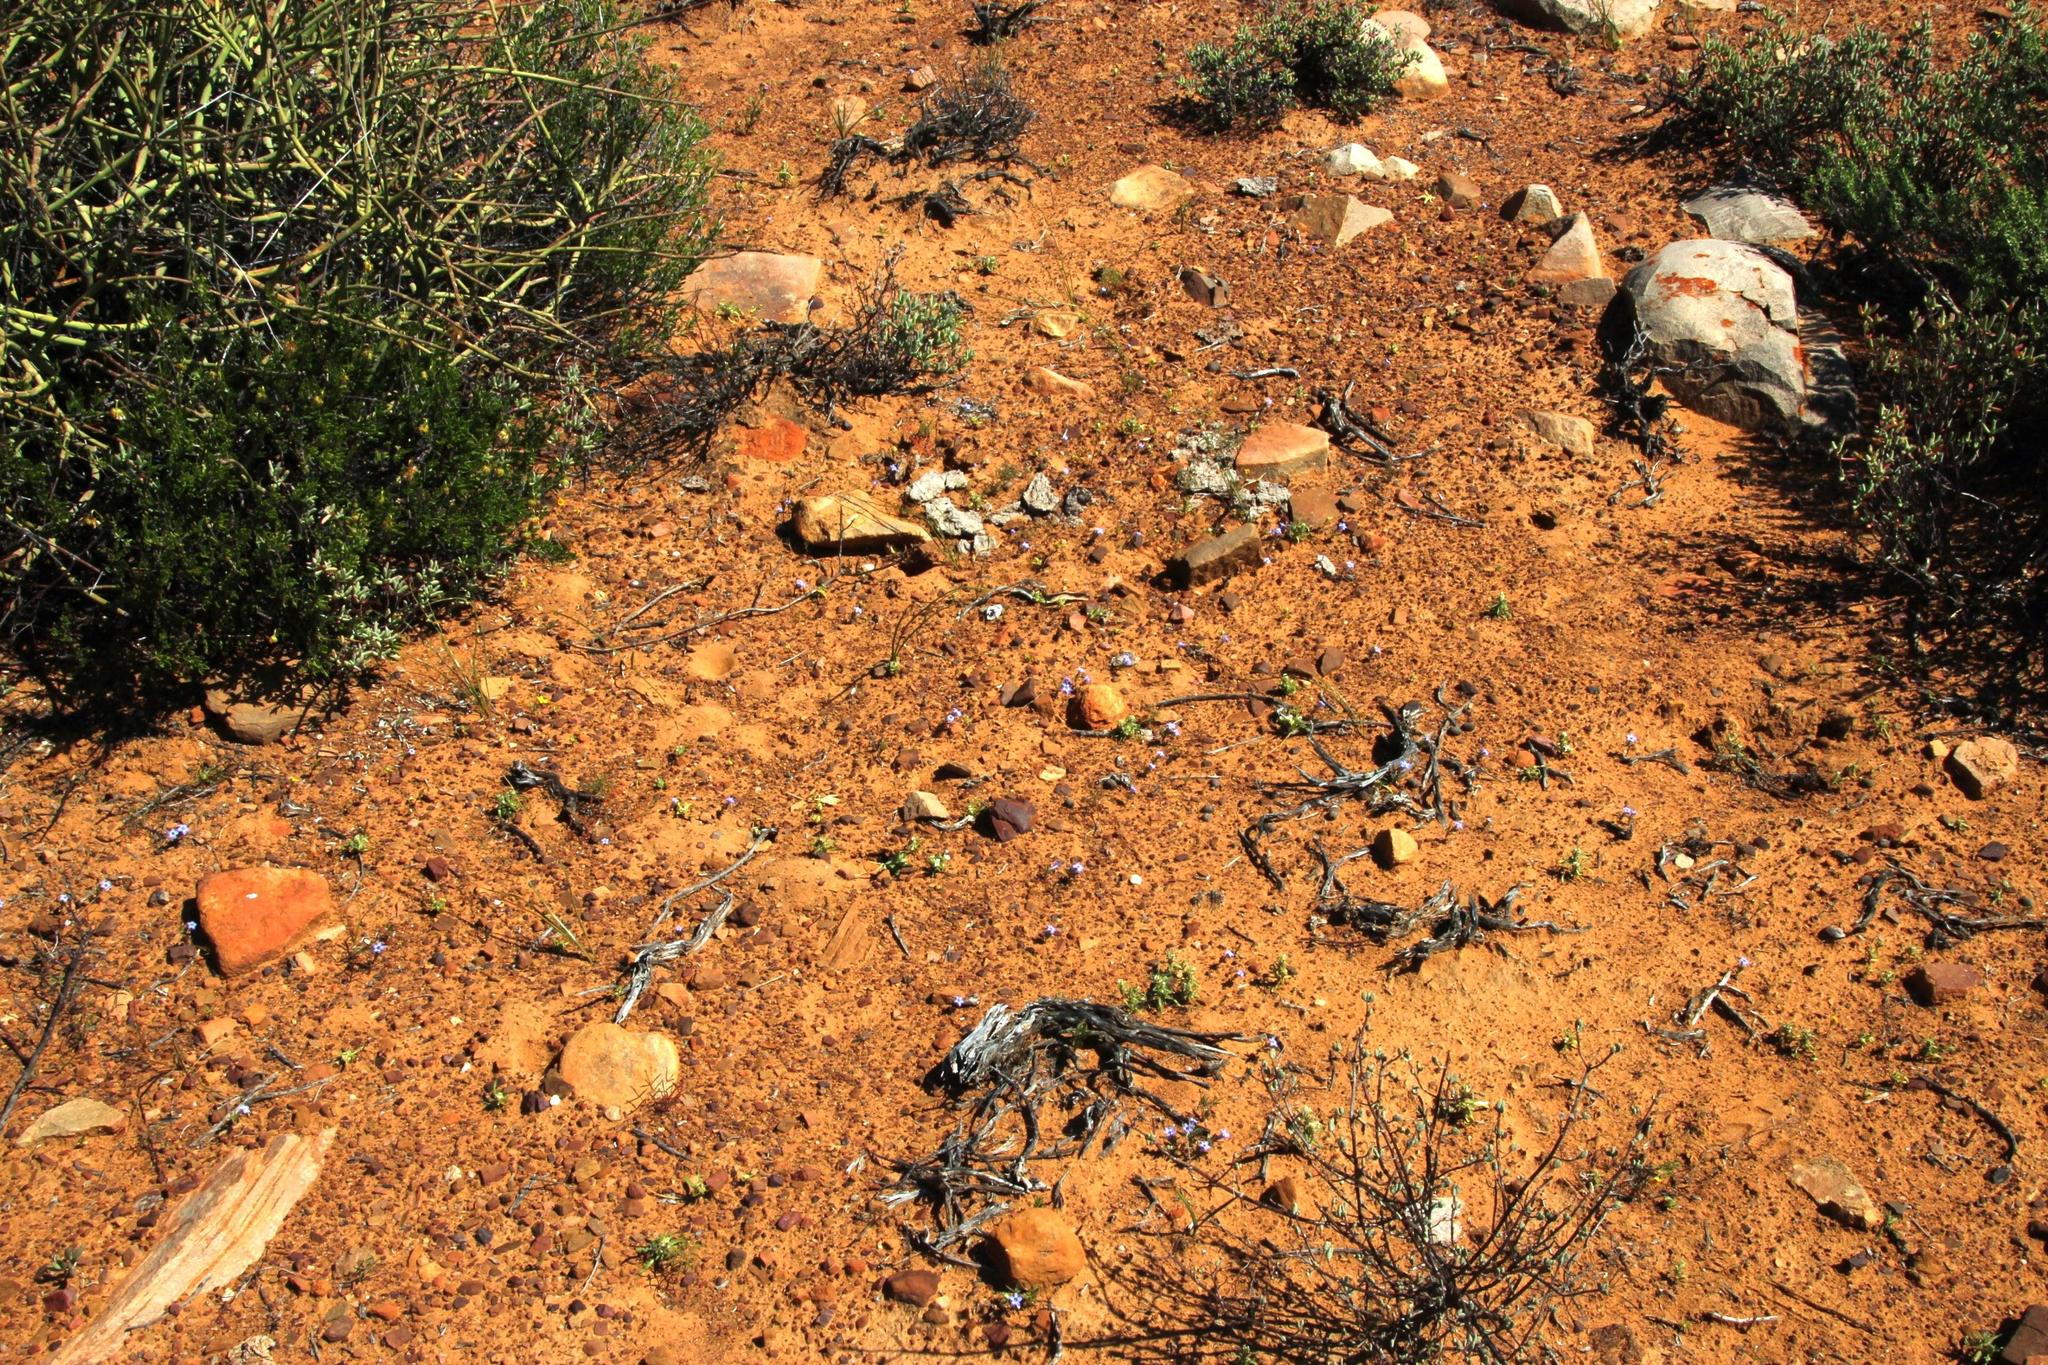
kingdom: Plantae
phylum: Tracheophyta
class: Magnoliopsida
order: Asterales
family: Campanulaceae
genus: Wahlenbergia
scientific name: Wahlenbergia oxyphylla
